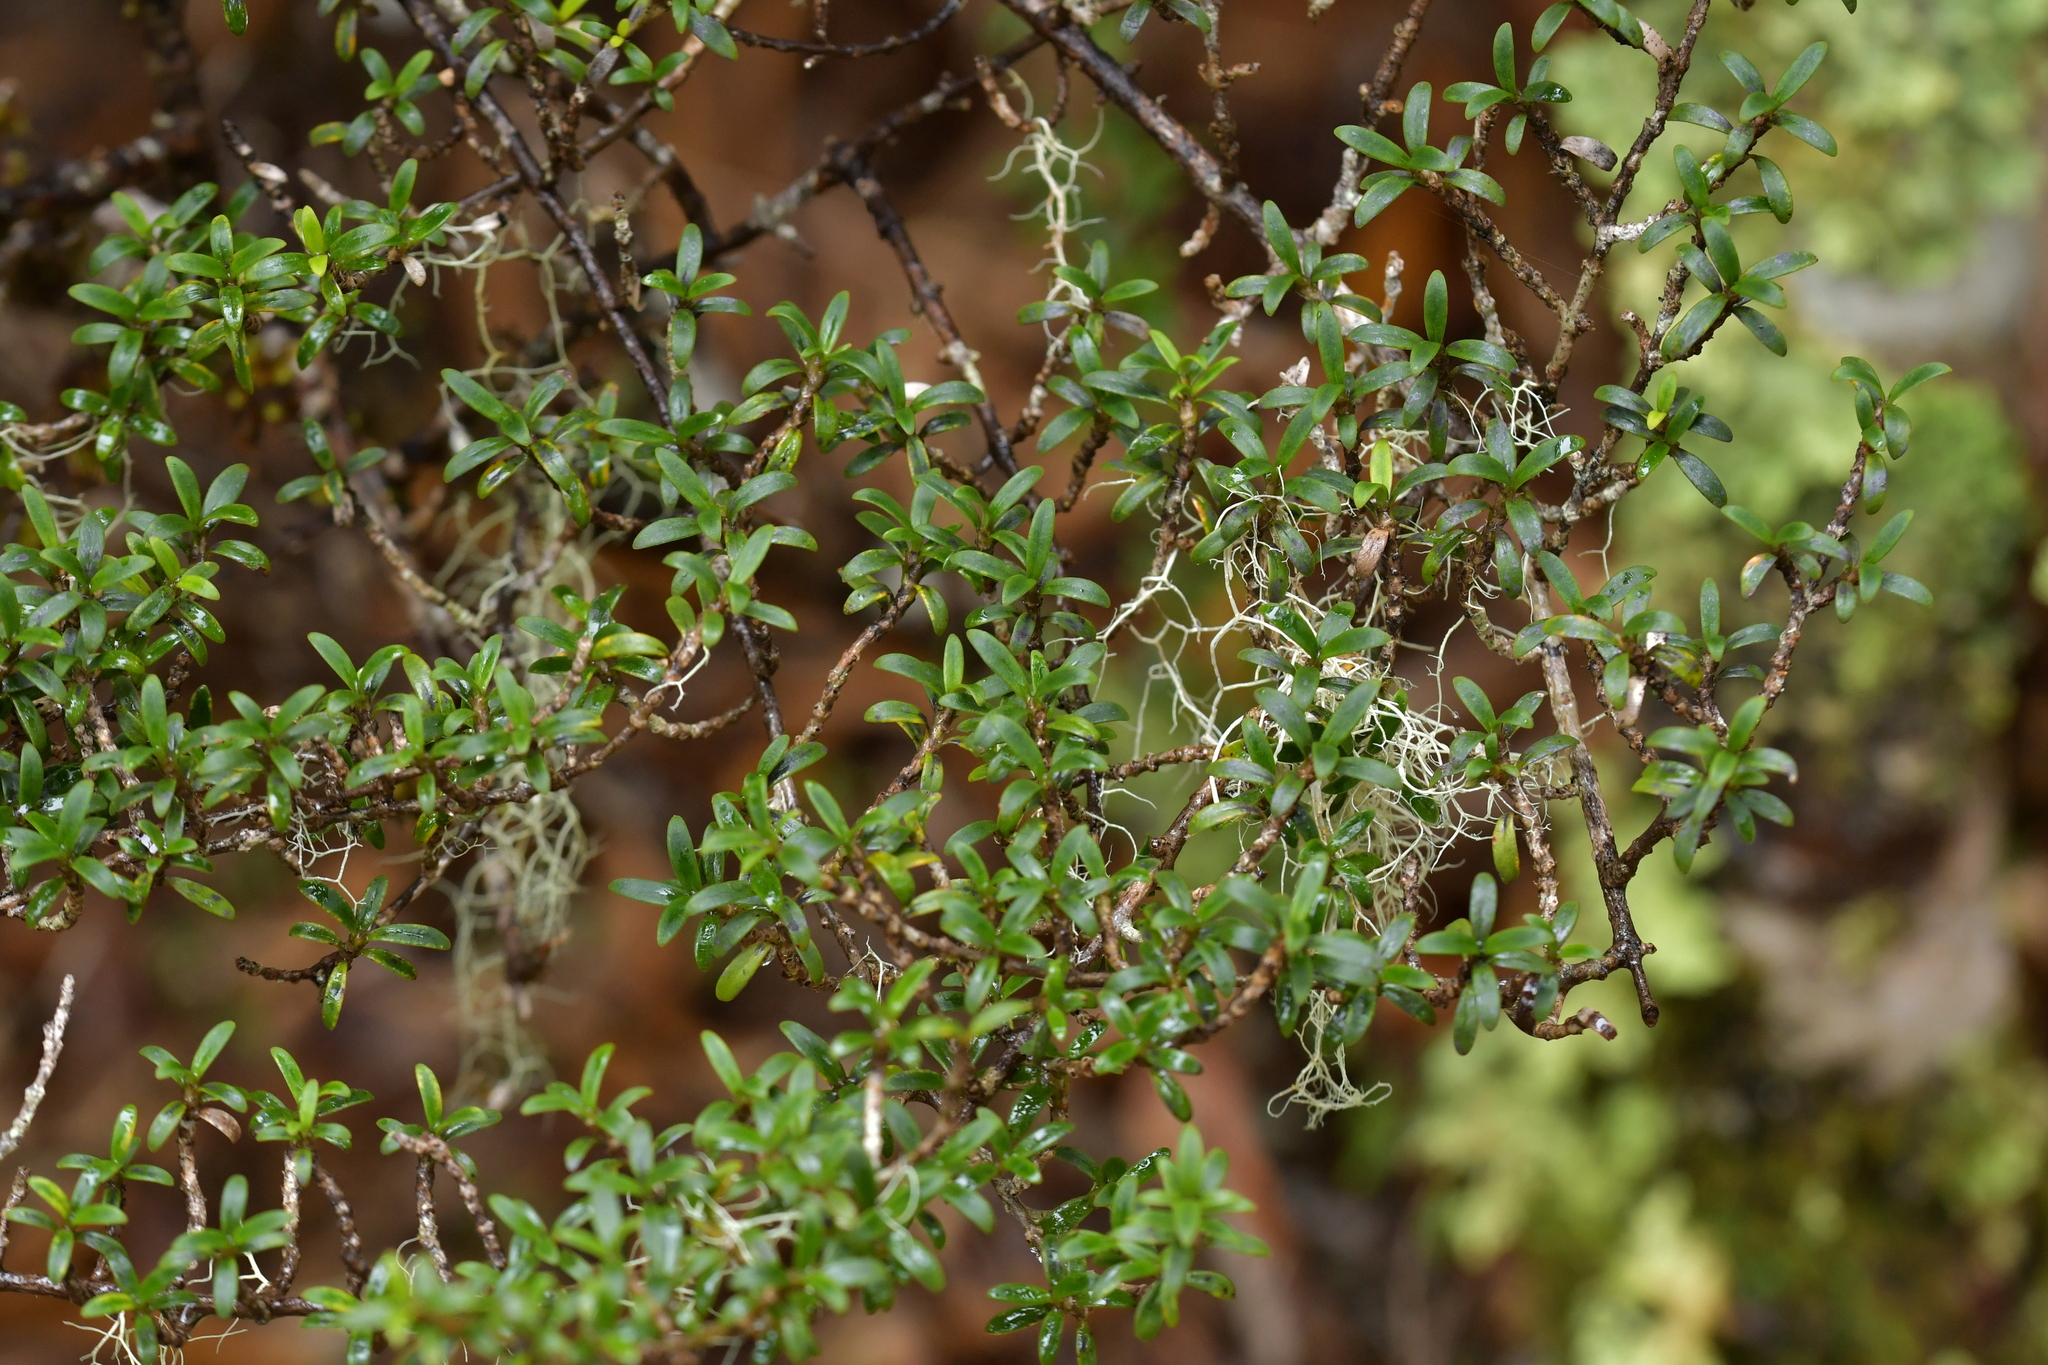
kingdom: Plantae
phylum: Tracheophyta
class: Magnoliopsida
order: Gentianales
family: Rubiaceae
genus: Coprosma
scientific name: Coprosma pseudocuneata
